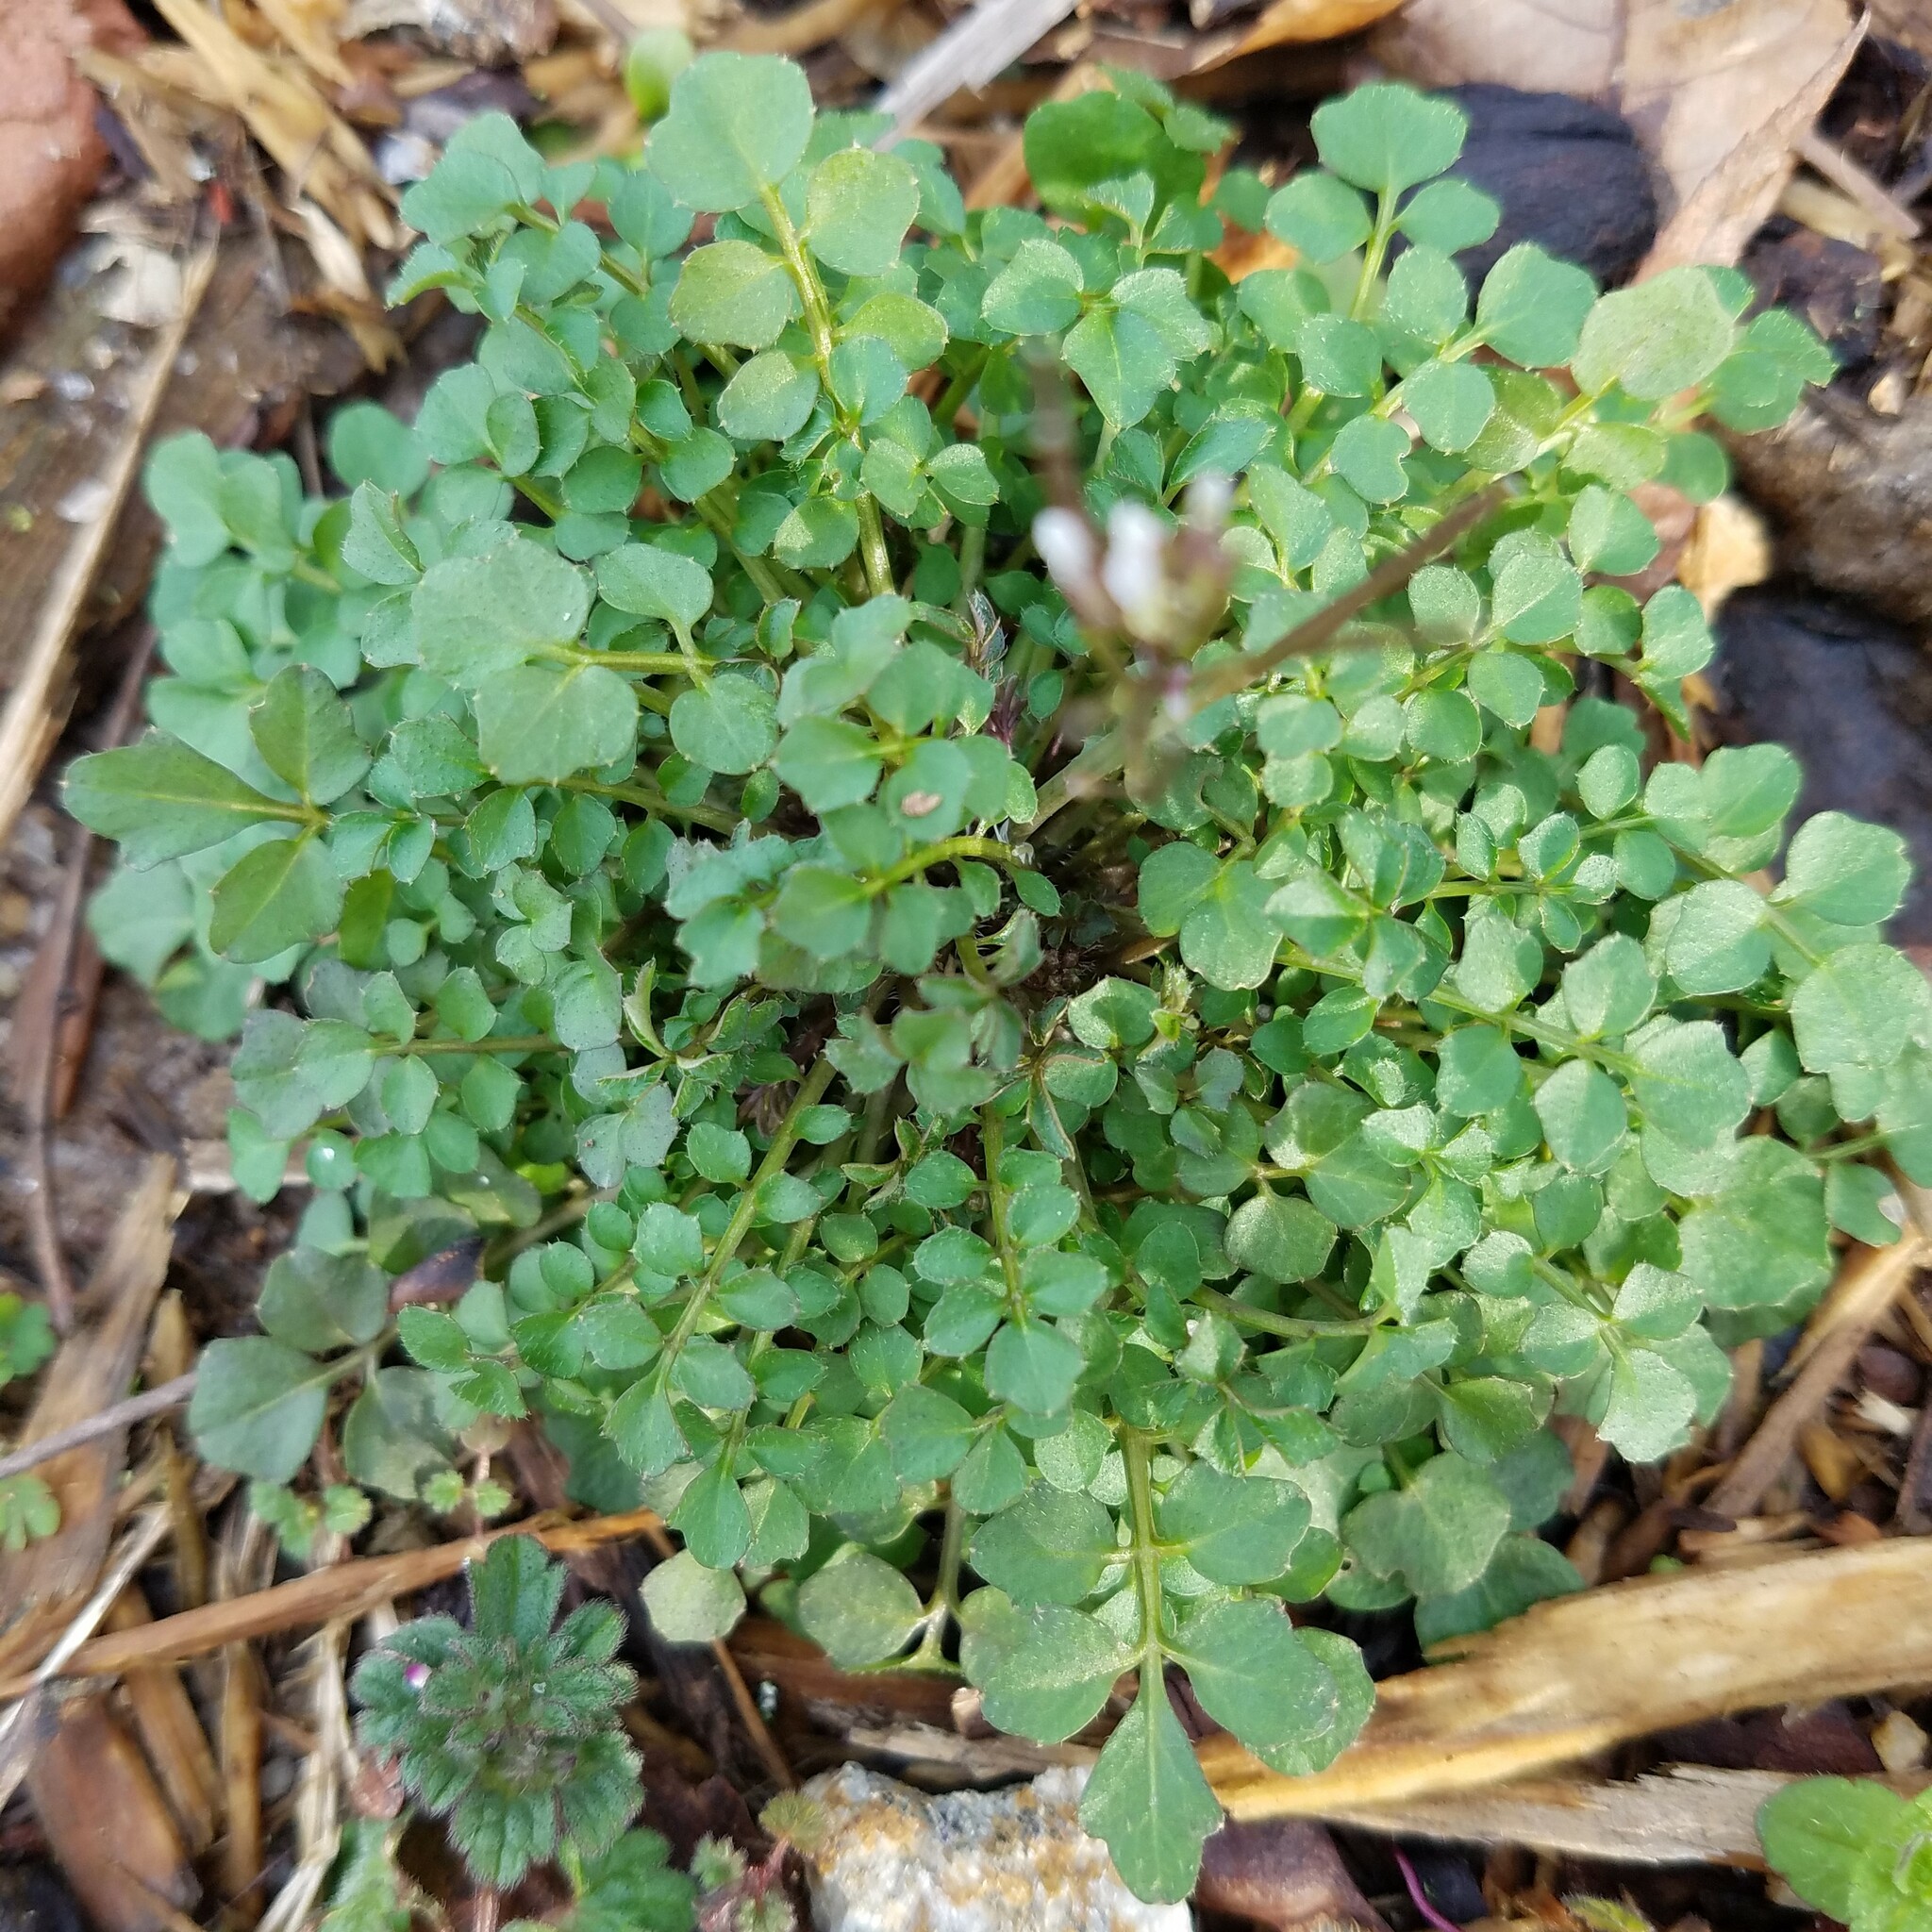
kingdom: Plantae
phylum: Tracheophyta
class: Magnoliopsida
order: Brassicales
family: Brassicaceae
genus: Cardamine
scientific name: Cardamine hirsuta
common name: Hairy bittercress
